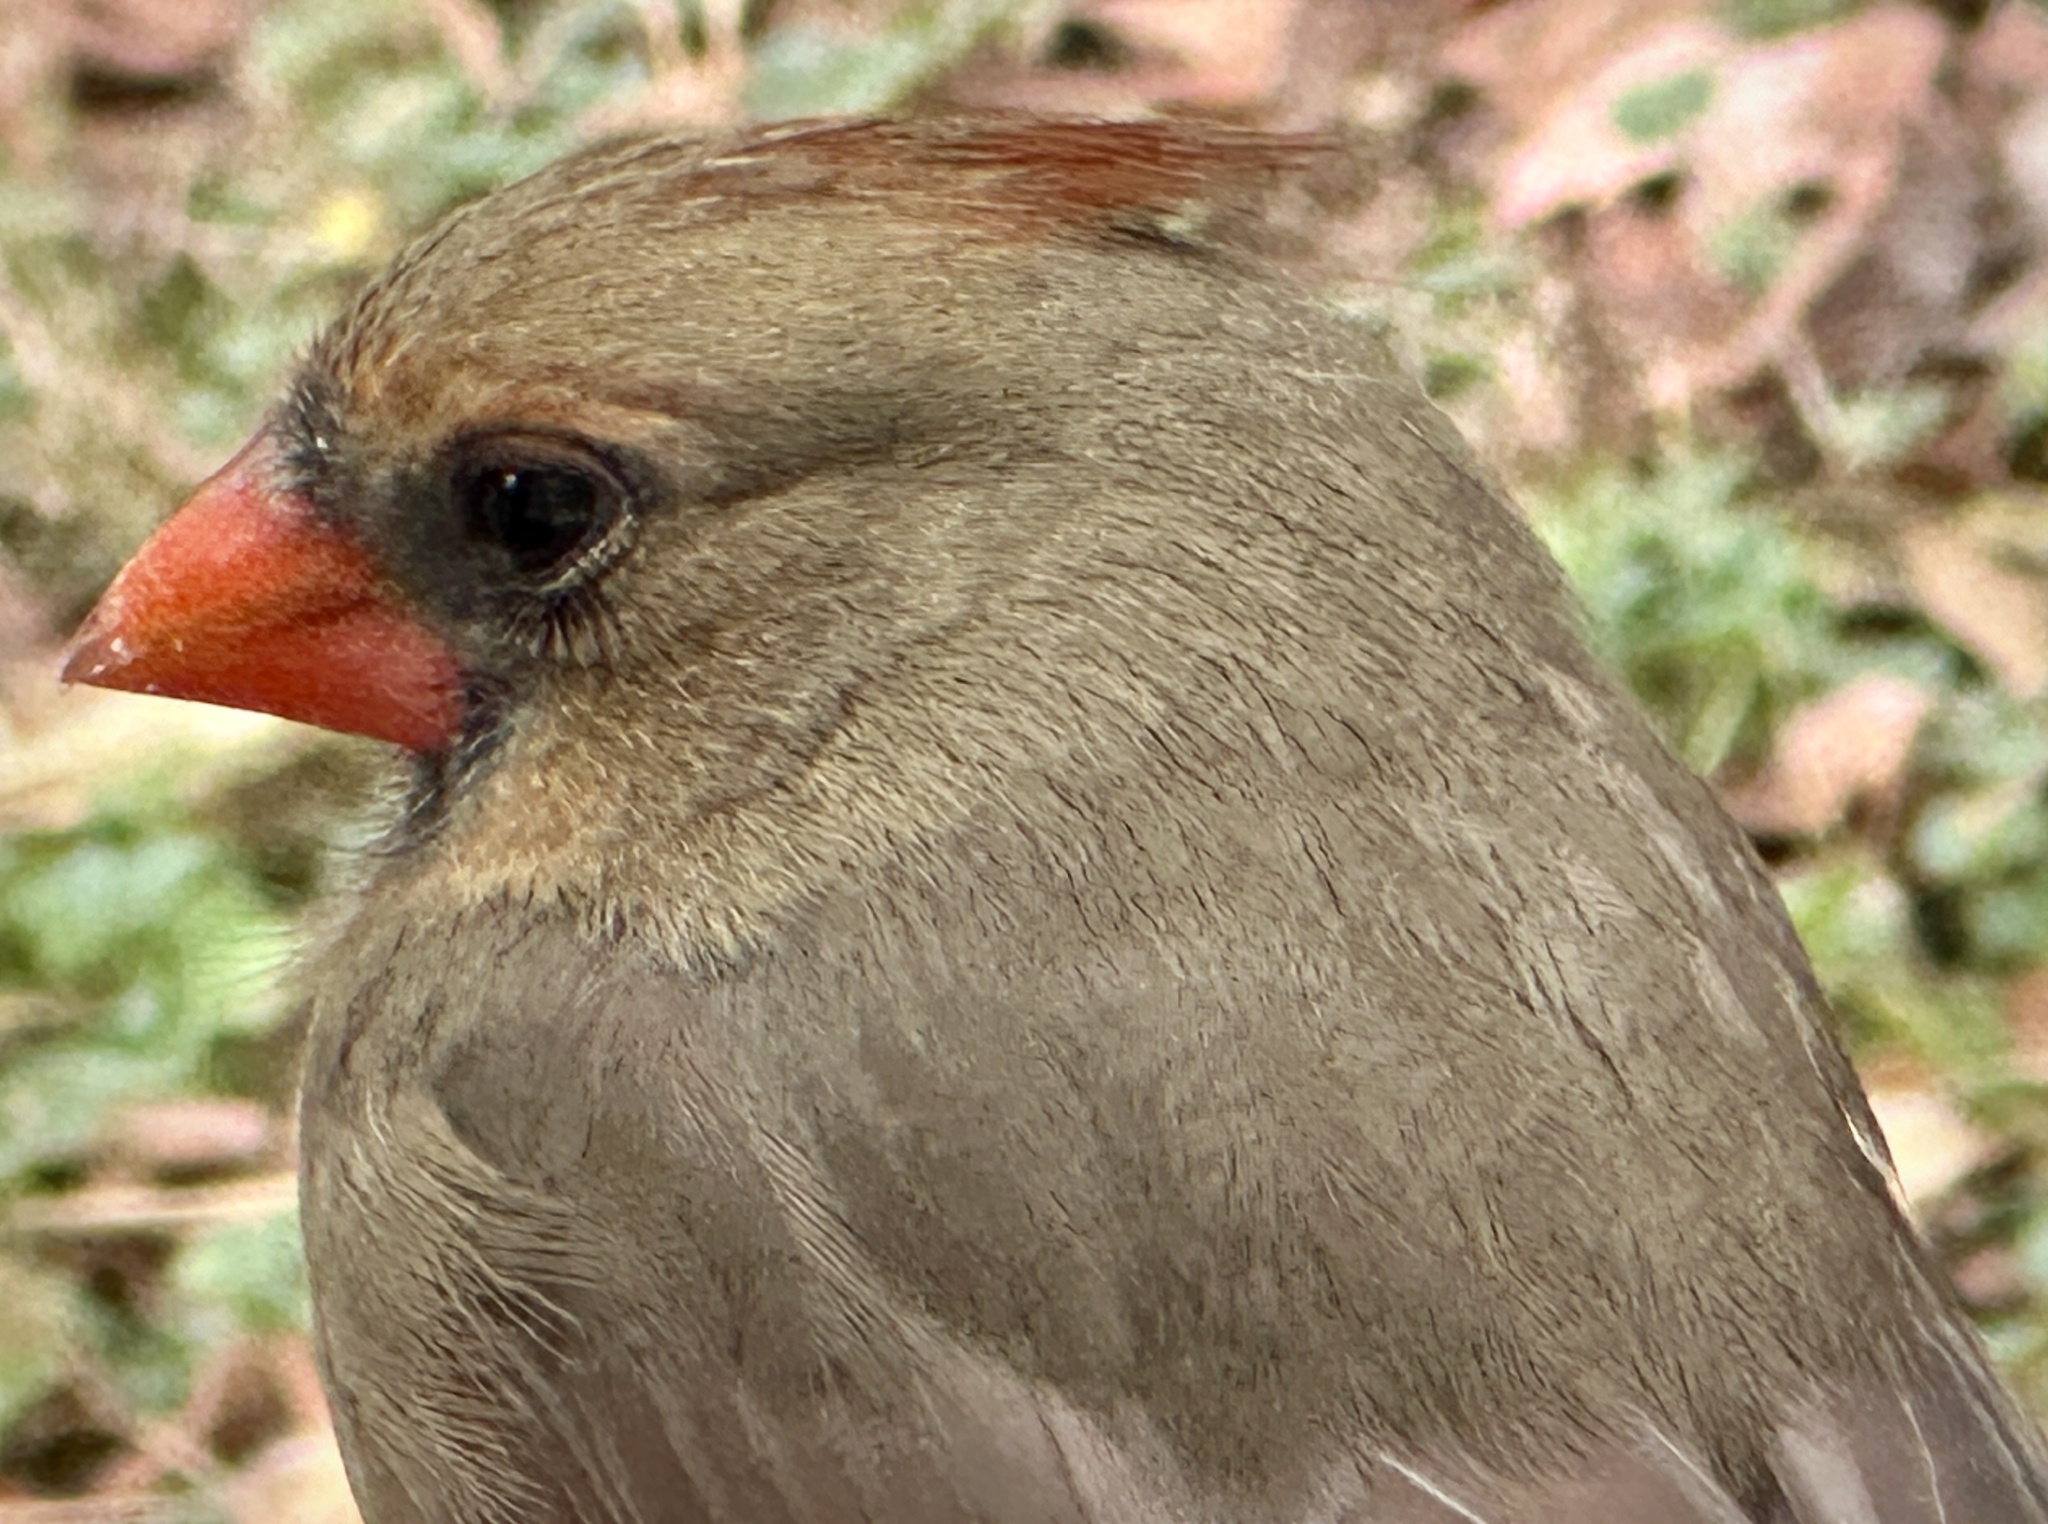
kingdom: Animalia
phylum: Chordata
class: Aves
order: Passeriformes
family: Cardinalidae
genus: Cardinalis
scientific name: Cardinalis cardinalis
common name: Northern cardinal
